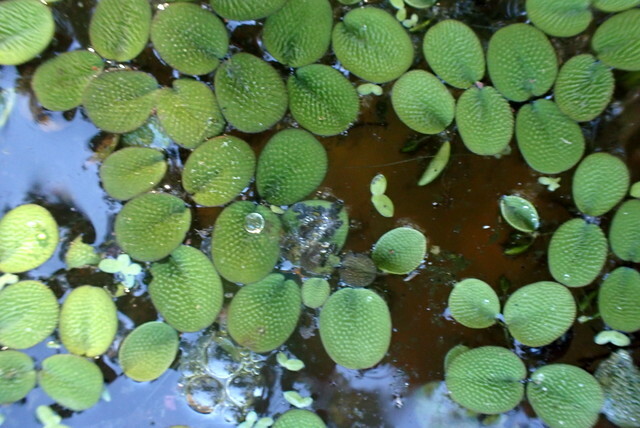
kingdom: Plantae
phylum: Tracheophyta
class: Polypodiopsida
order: Salviniales
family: Salviniaceae
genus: Salvinia
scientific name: Salvinia minima
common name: Water spangles
